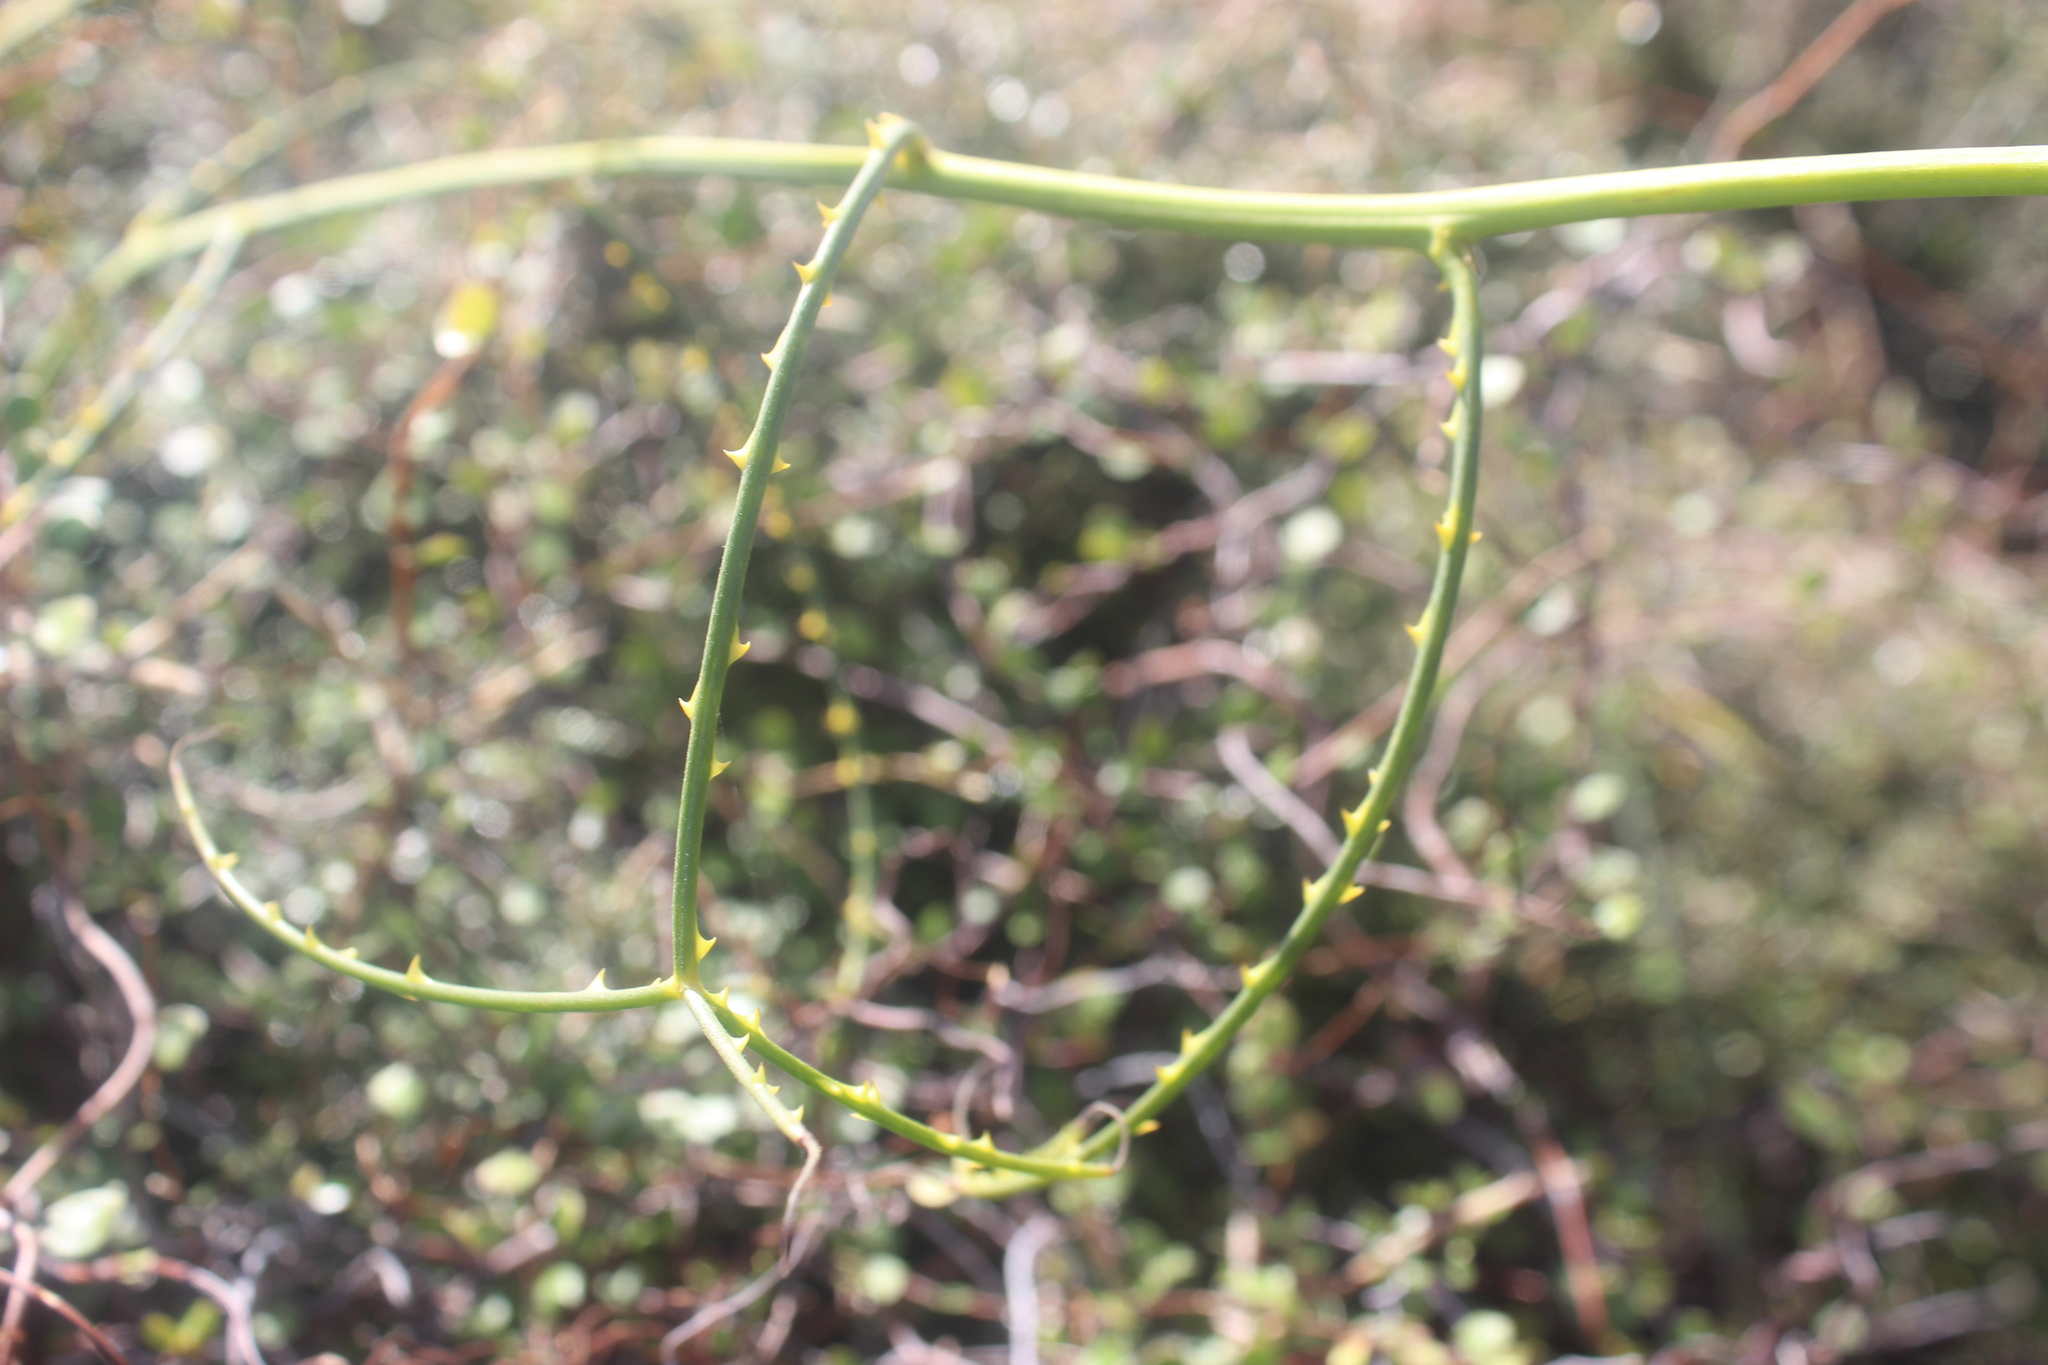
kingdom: Plantae
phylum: Tracheophyta
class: Magnoliopsida
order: Rosales
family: Rosaceae
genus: Rubus
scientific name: Rubus squarrosus
